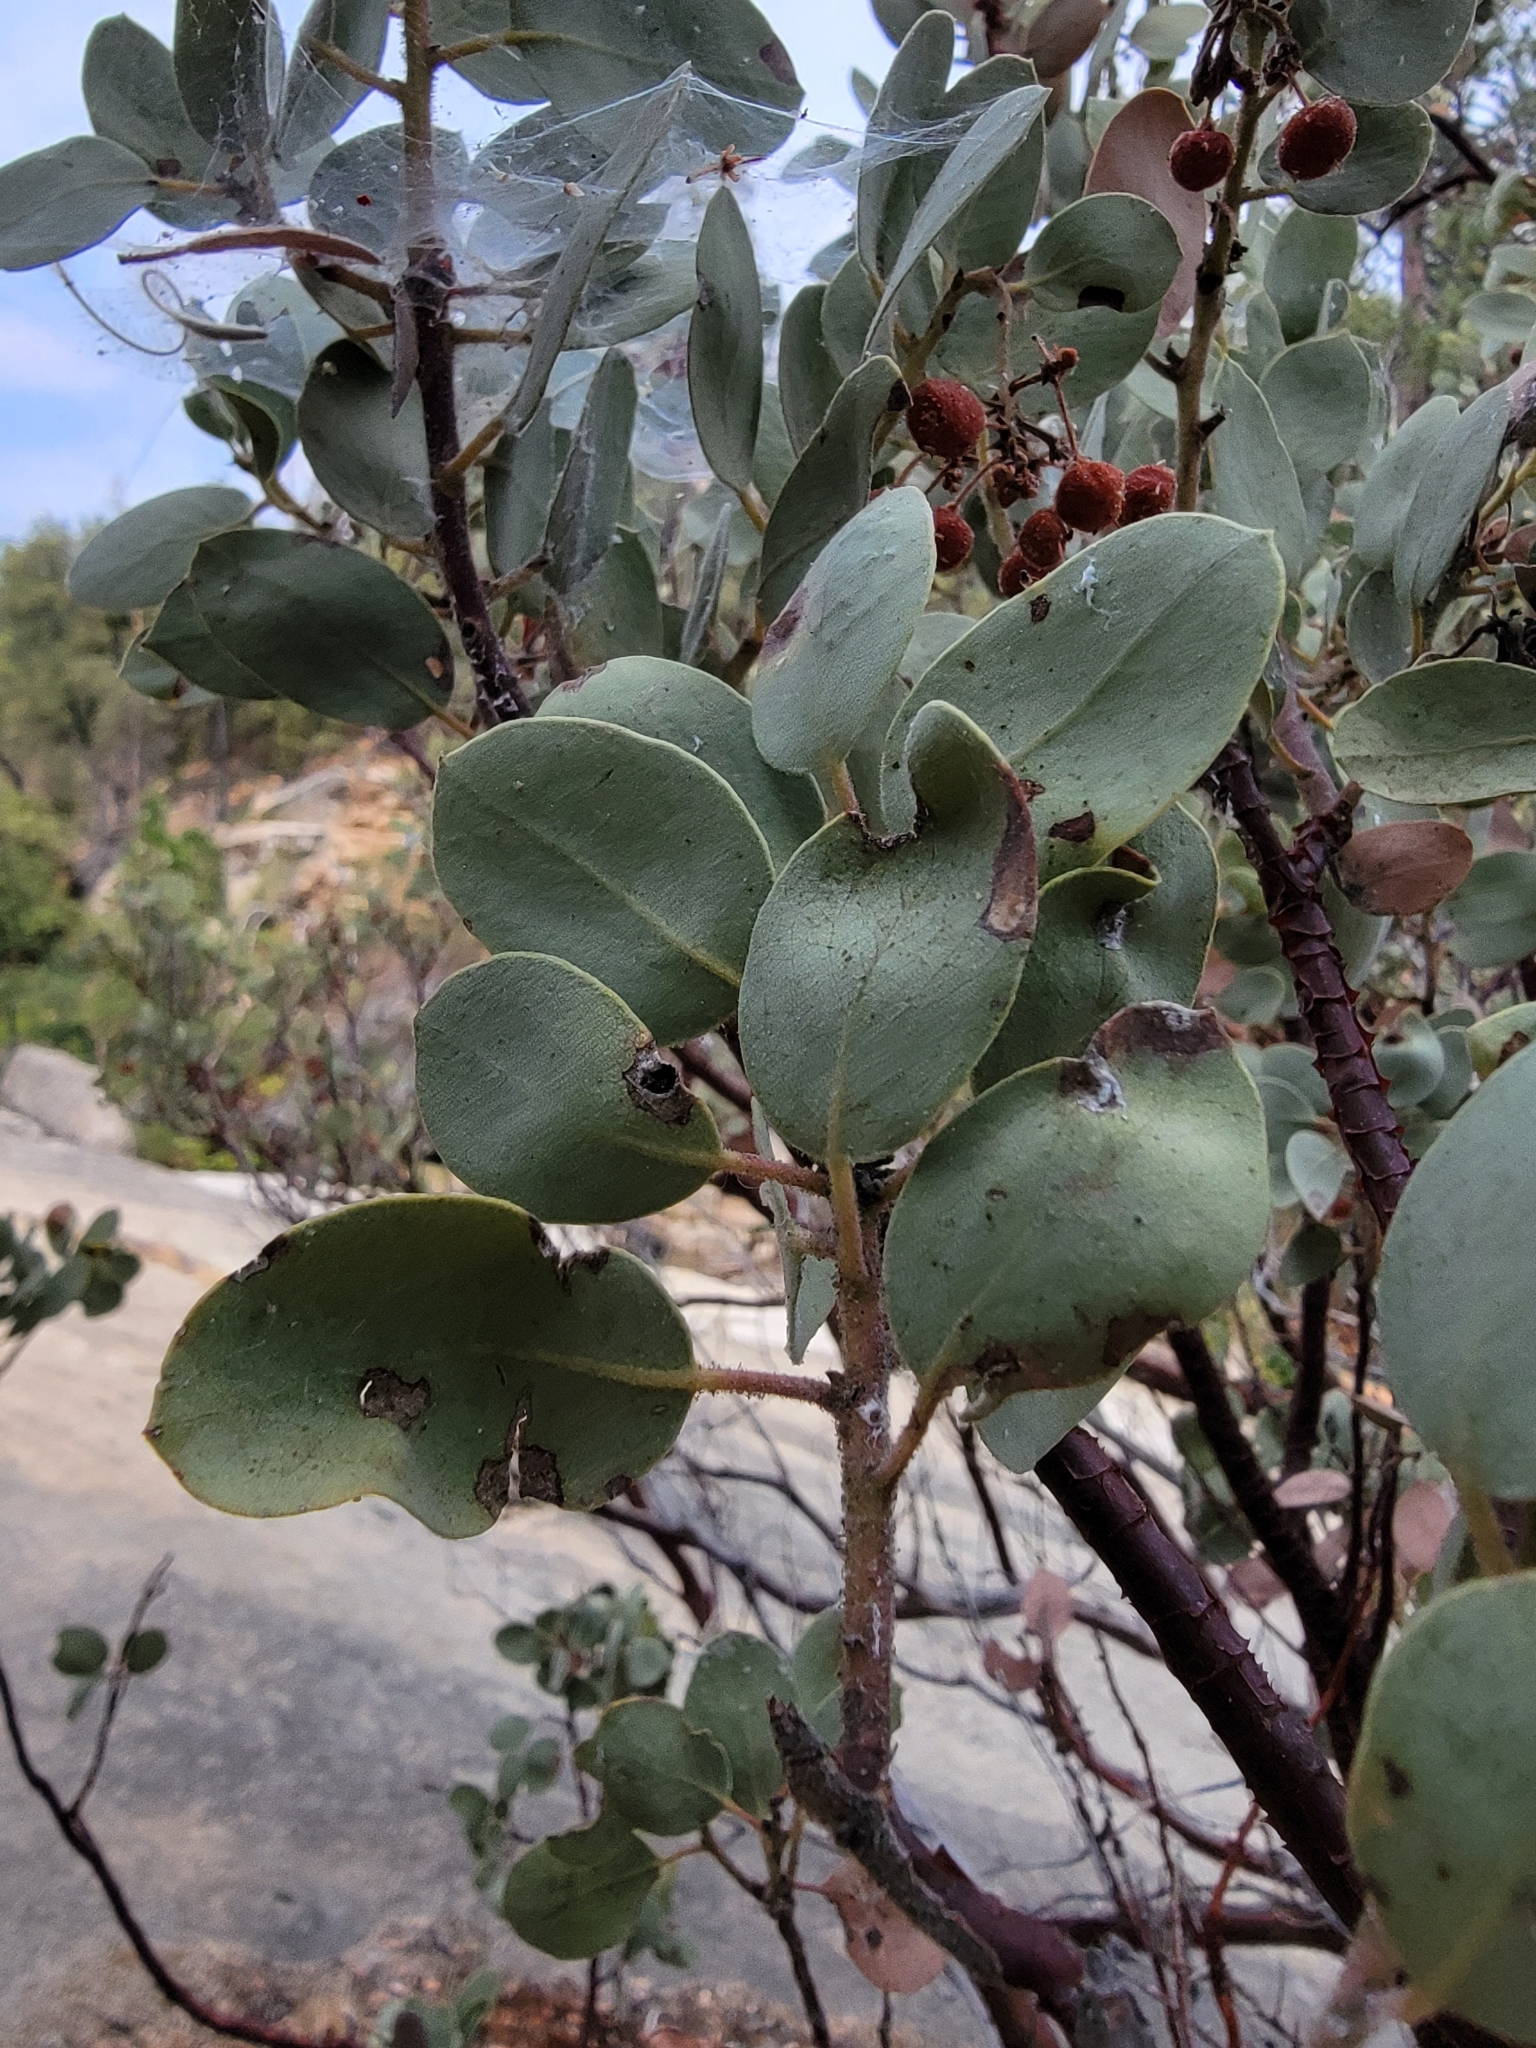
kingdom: Plantae
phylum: Tracheophyta
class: Magnoliopsida
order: Ericales
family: Ericaceae
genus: Arctostaphylos
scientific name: Arctostaphylos viscida
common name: White-leaf manzanita
